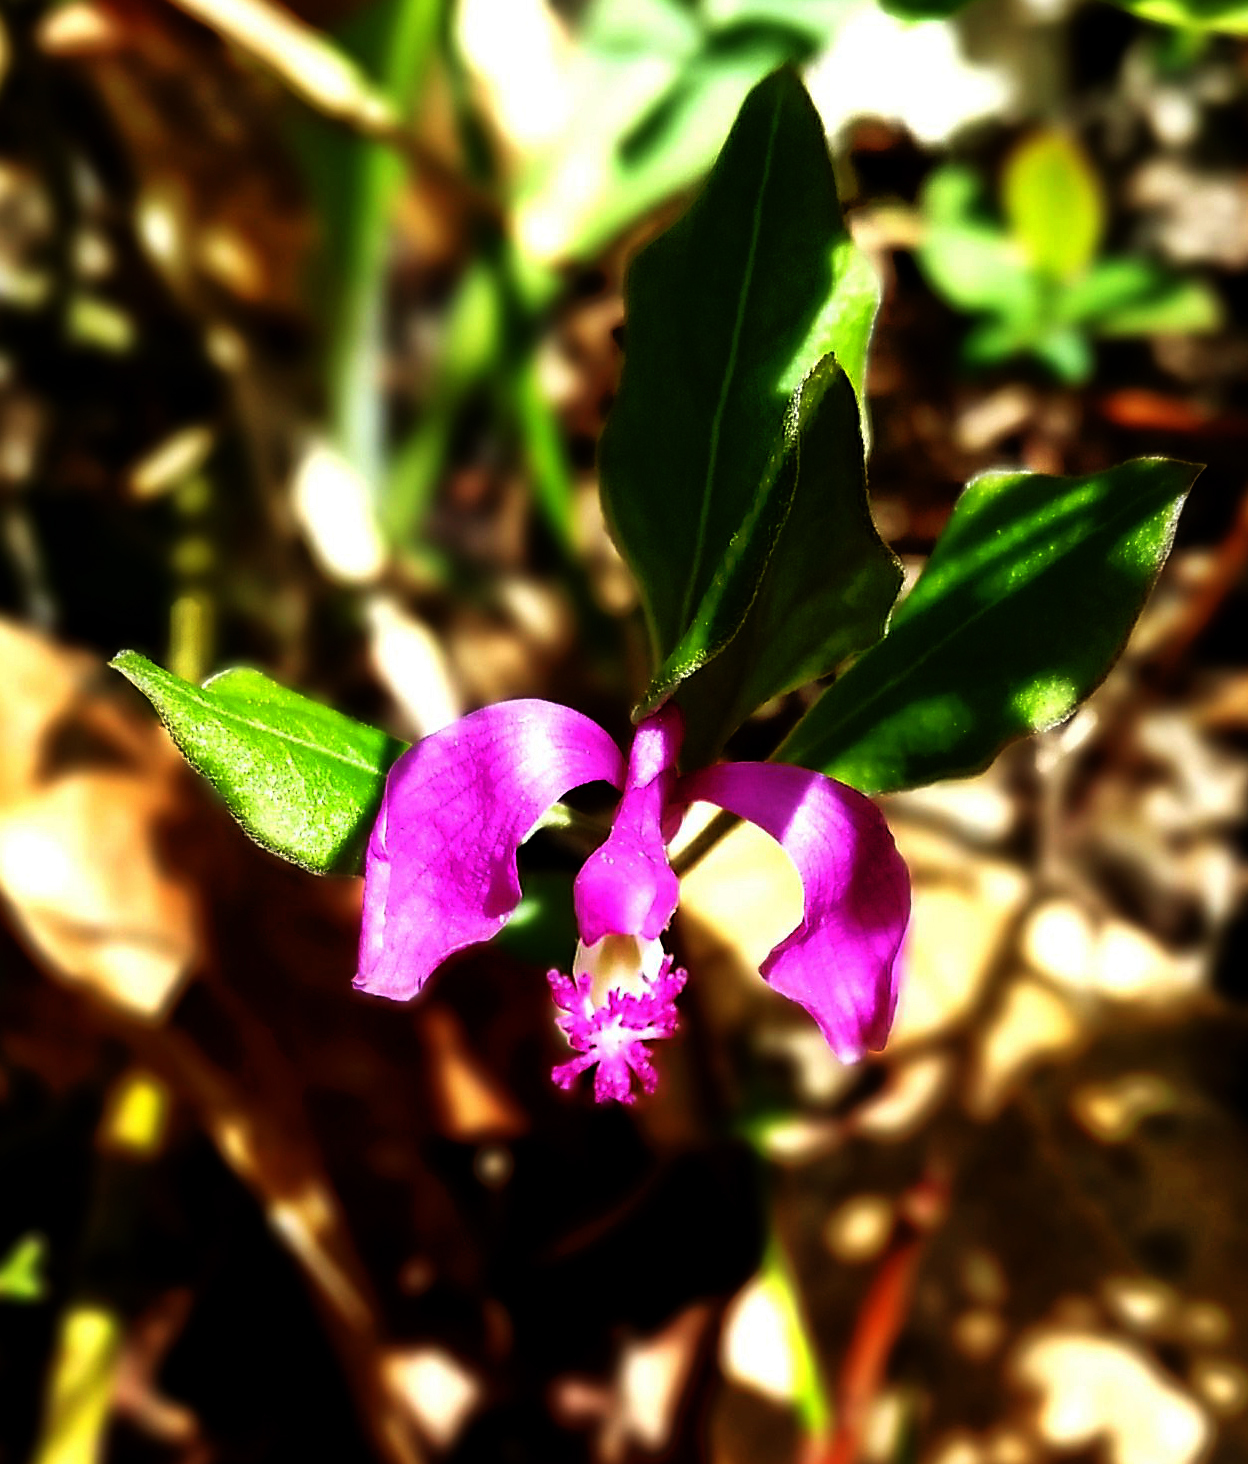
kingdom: Plantae
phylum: Tracheophyta
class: Magnoliopsida
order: Fabales
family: Polygalaceae
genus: Polygaloides
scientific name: Polygaloides paucifolia
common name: Bird-on-the-wing
